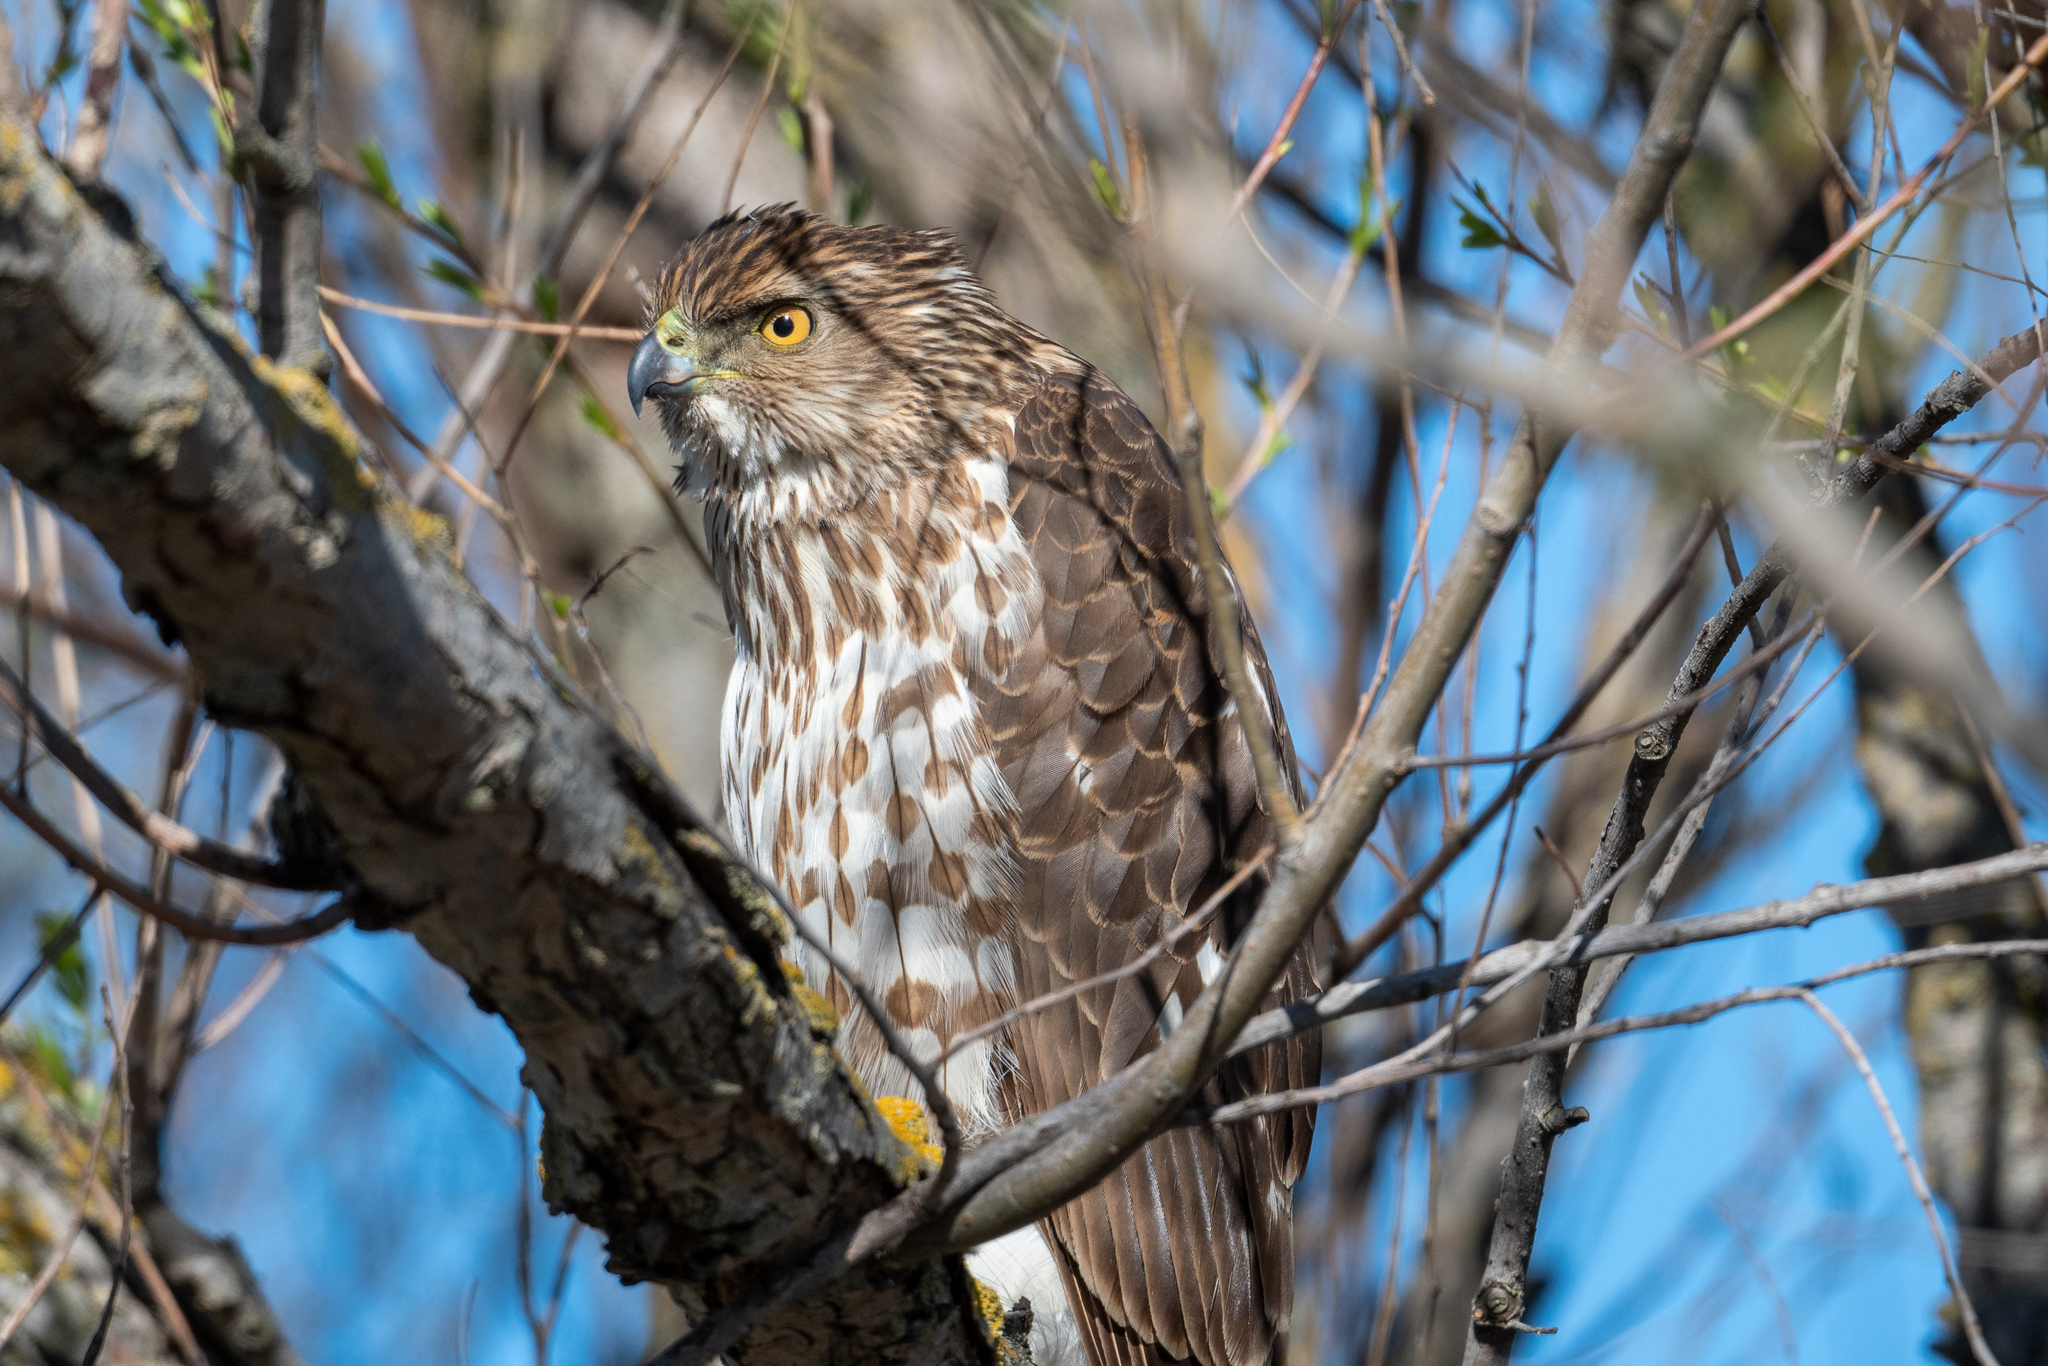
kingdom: Animalia
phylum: Chordata
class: Aves
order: Accipitriformes
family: Accipitridae
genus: Accipiter
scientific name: Accipiter cooperii
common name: Cooper's hawk
